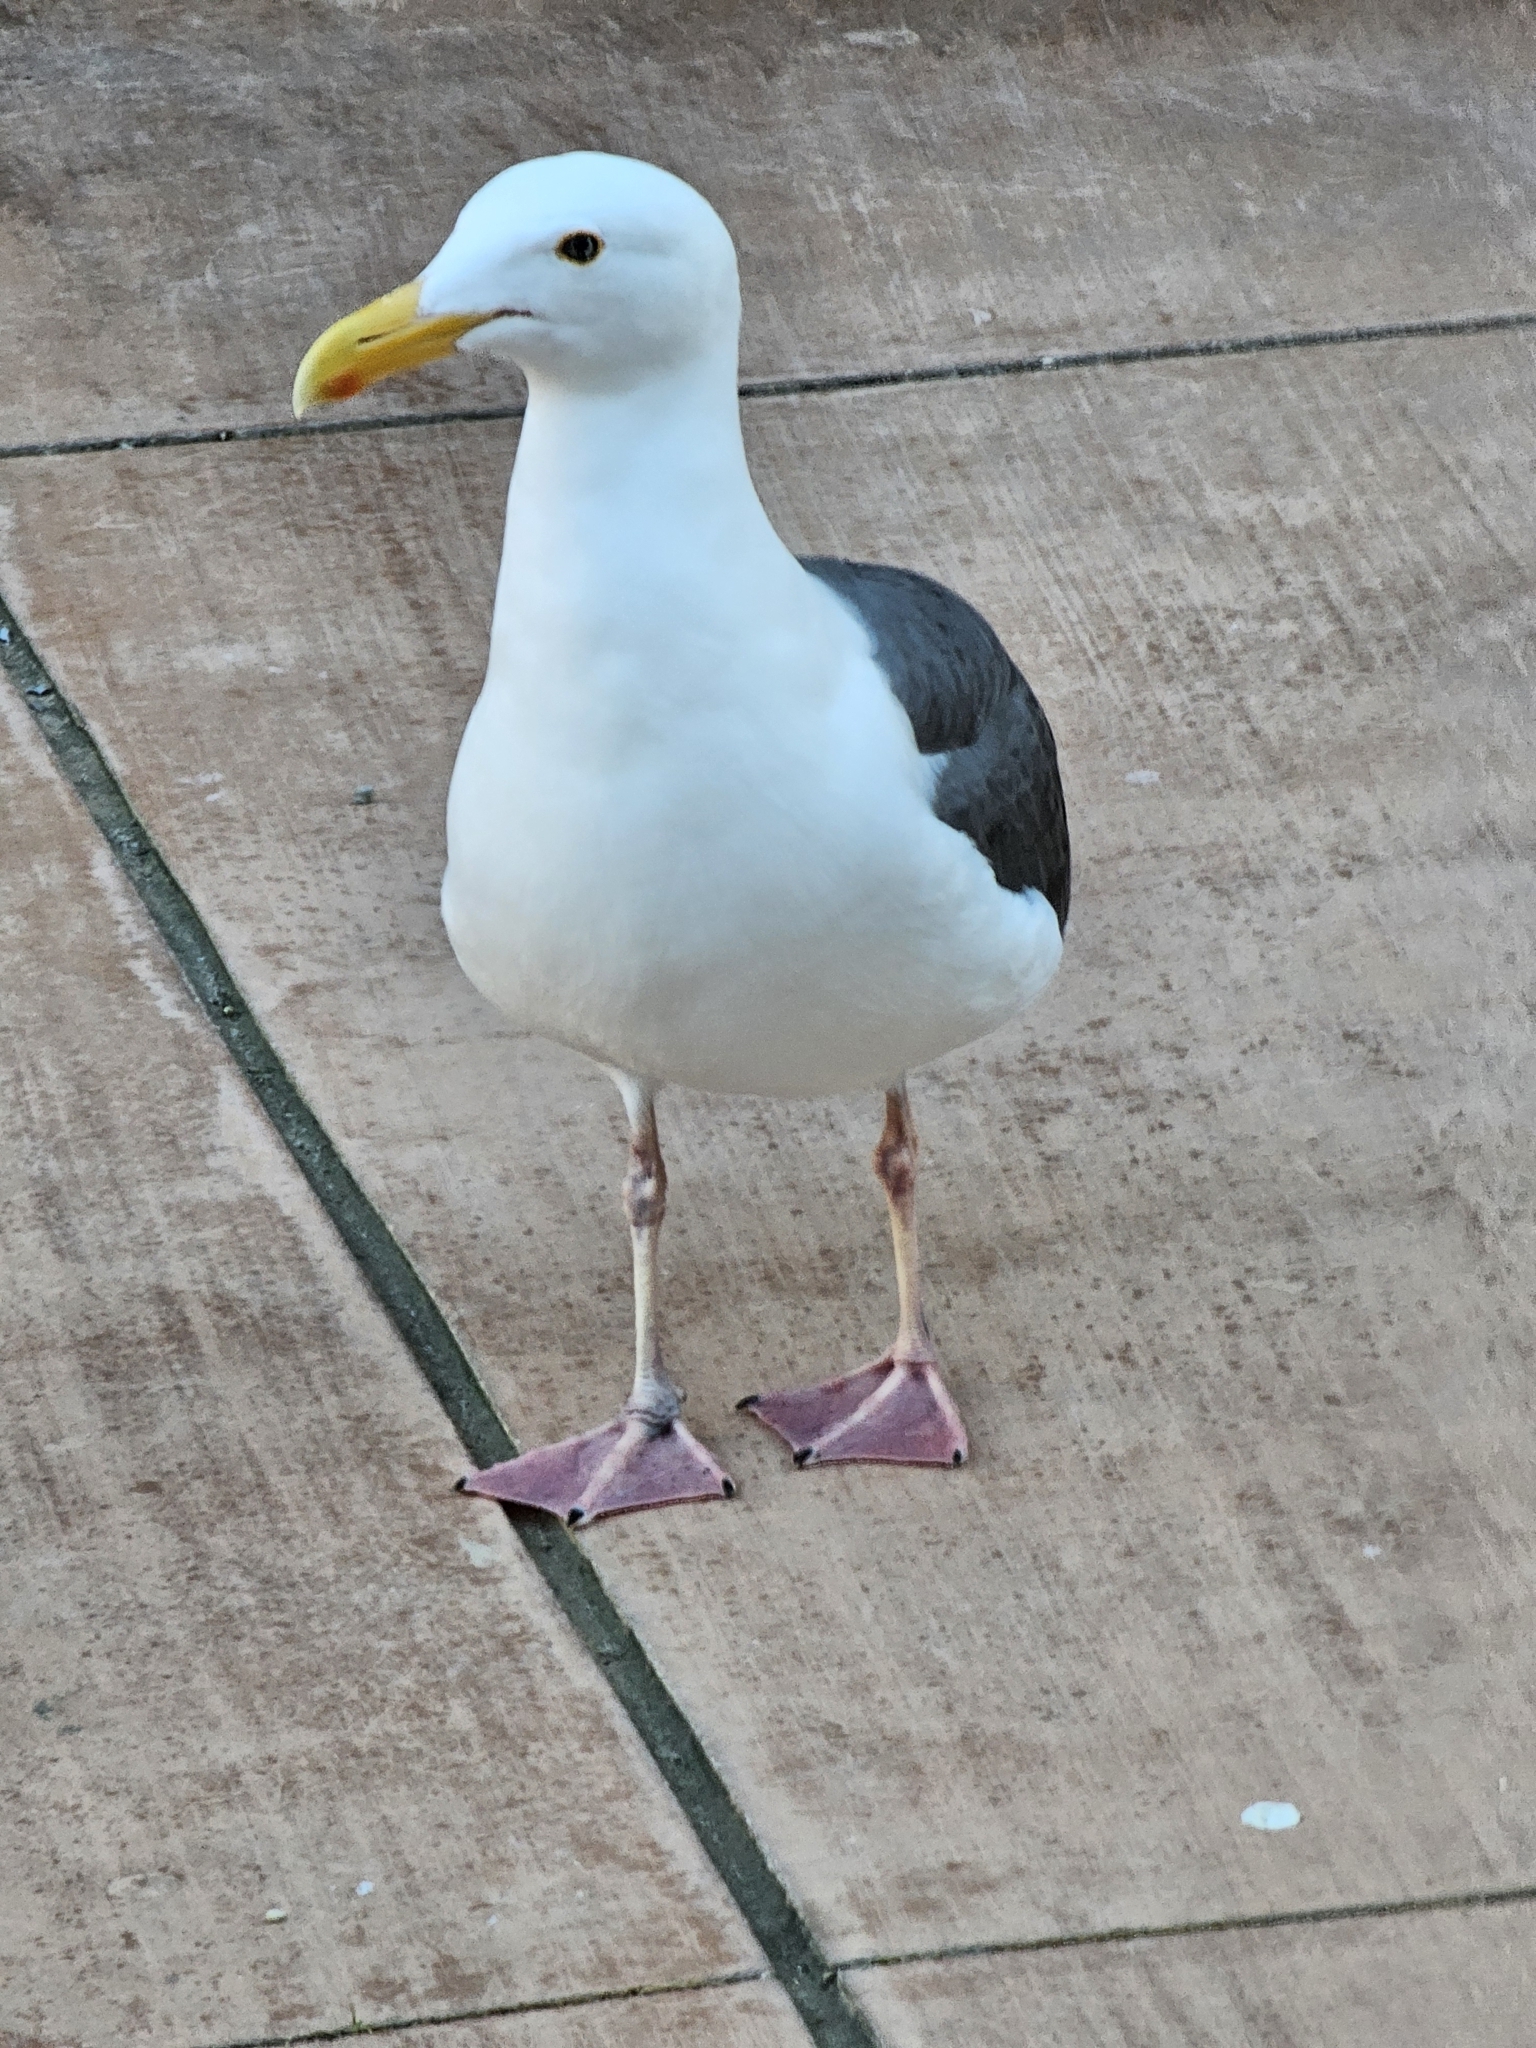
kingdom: Animalia
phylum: Chordata
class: Aves
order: Charadriiformes
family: Laridae
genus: Larus
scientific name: Larus occidentalis
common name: Western gull
